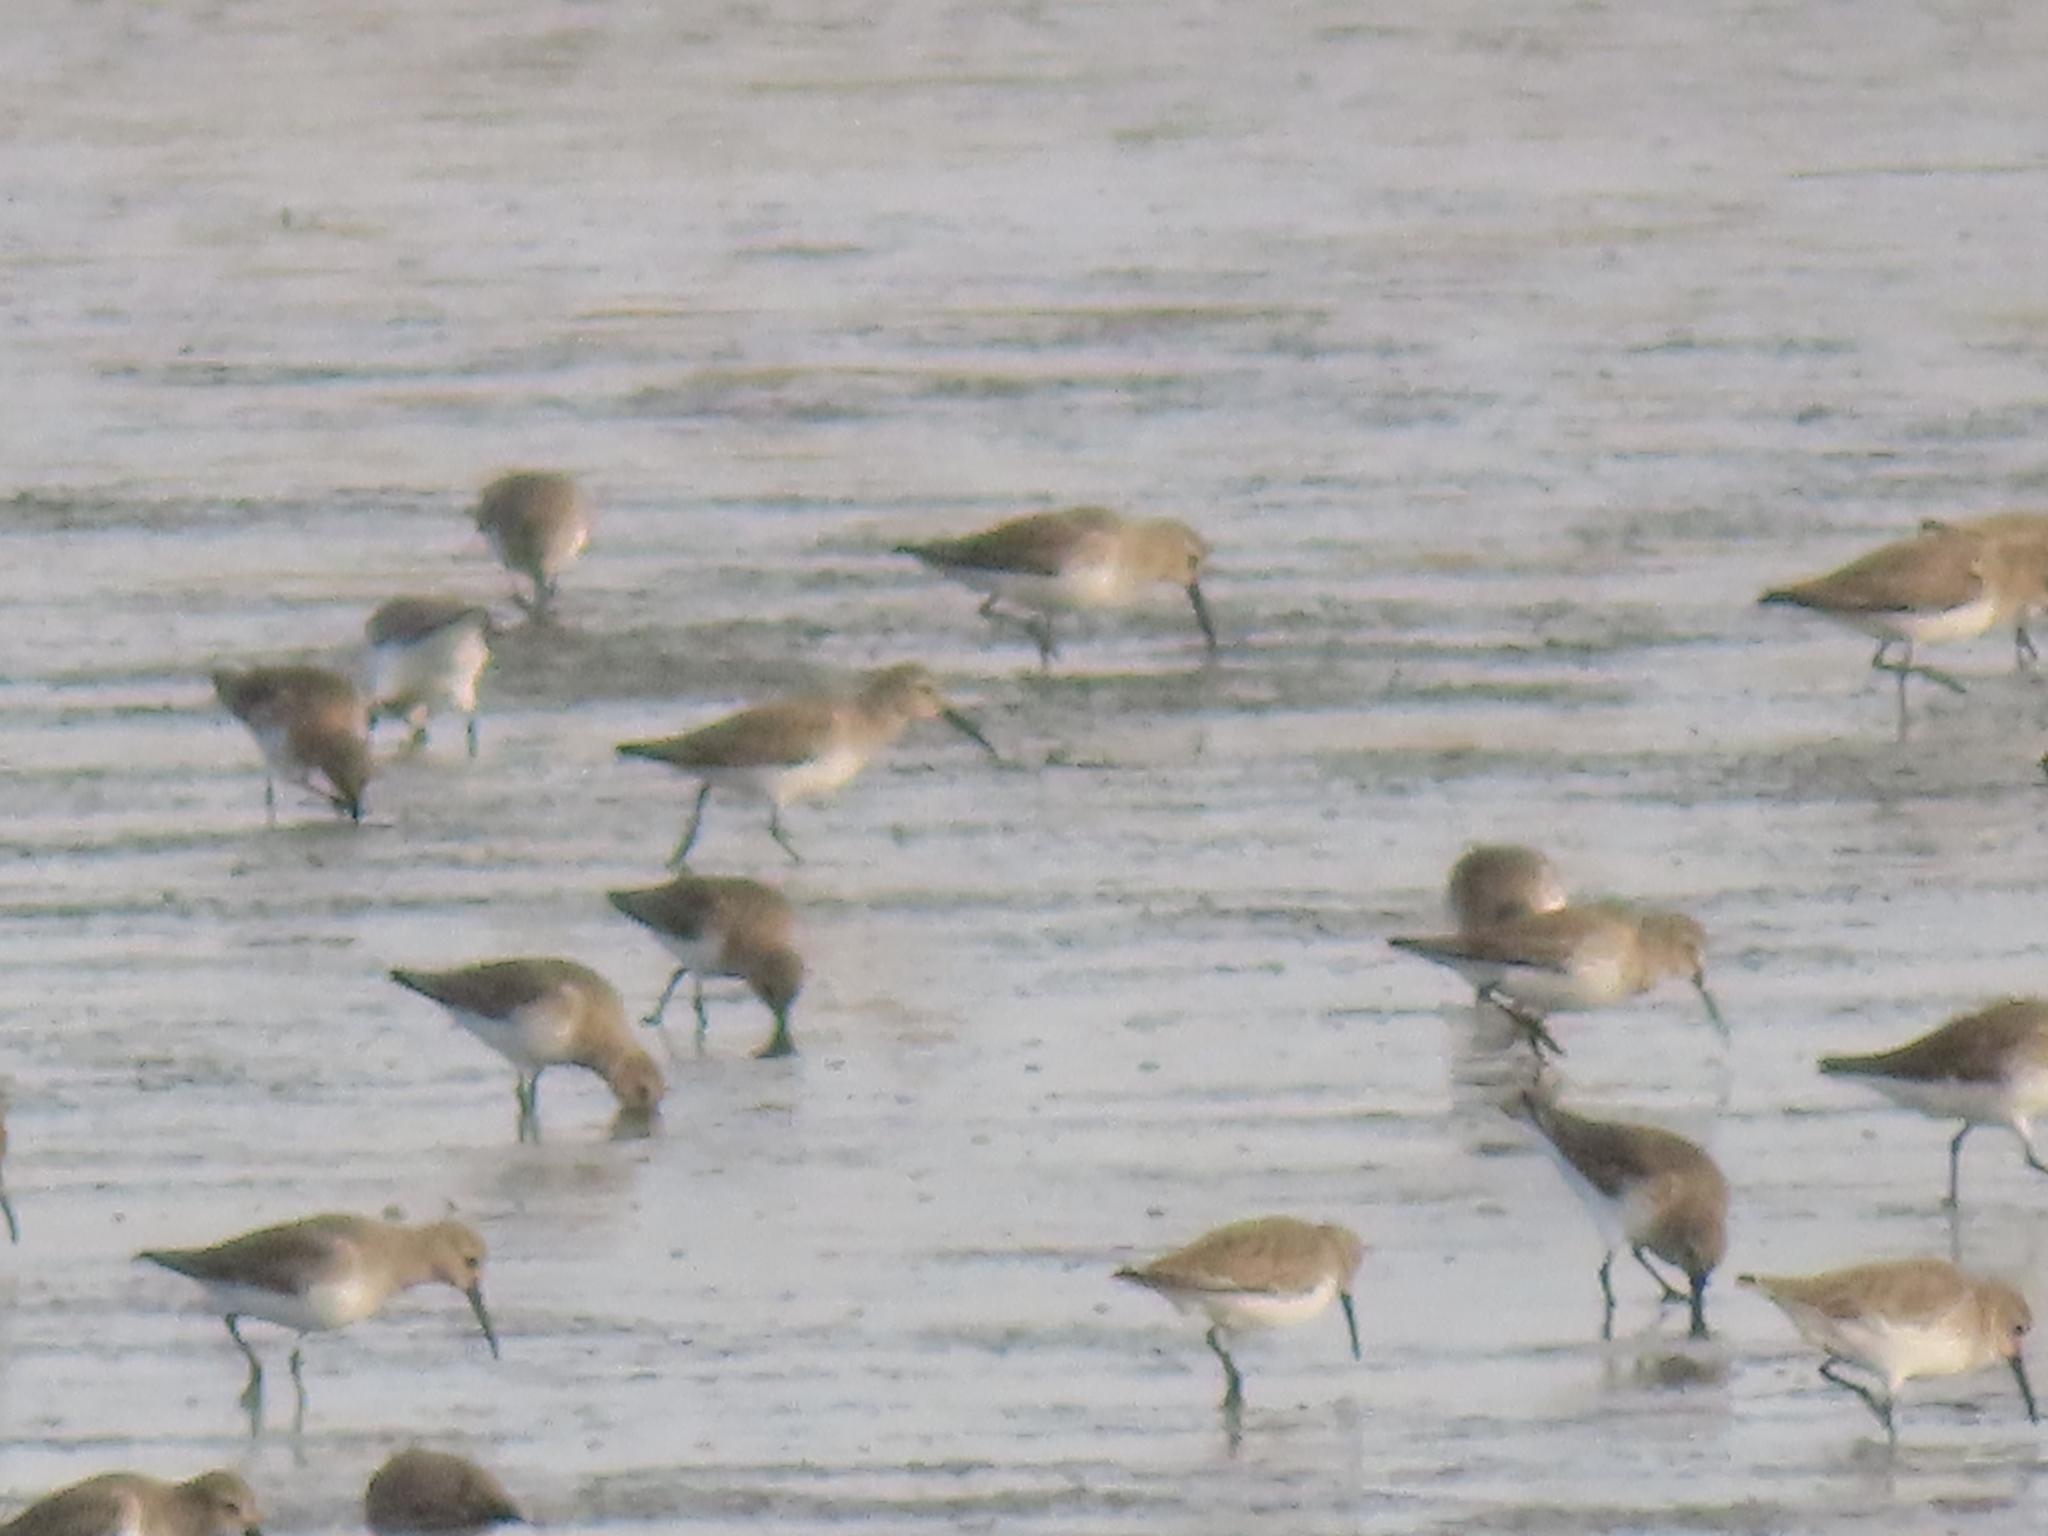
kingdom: Animalia
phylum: Chordata
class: Aves
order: Charadriiformes
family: Scolopacidae
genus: Calidris
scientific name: Calidris alpina
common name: Dunlin
